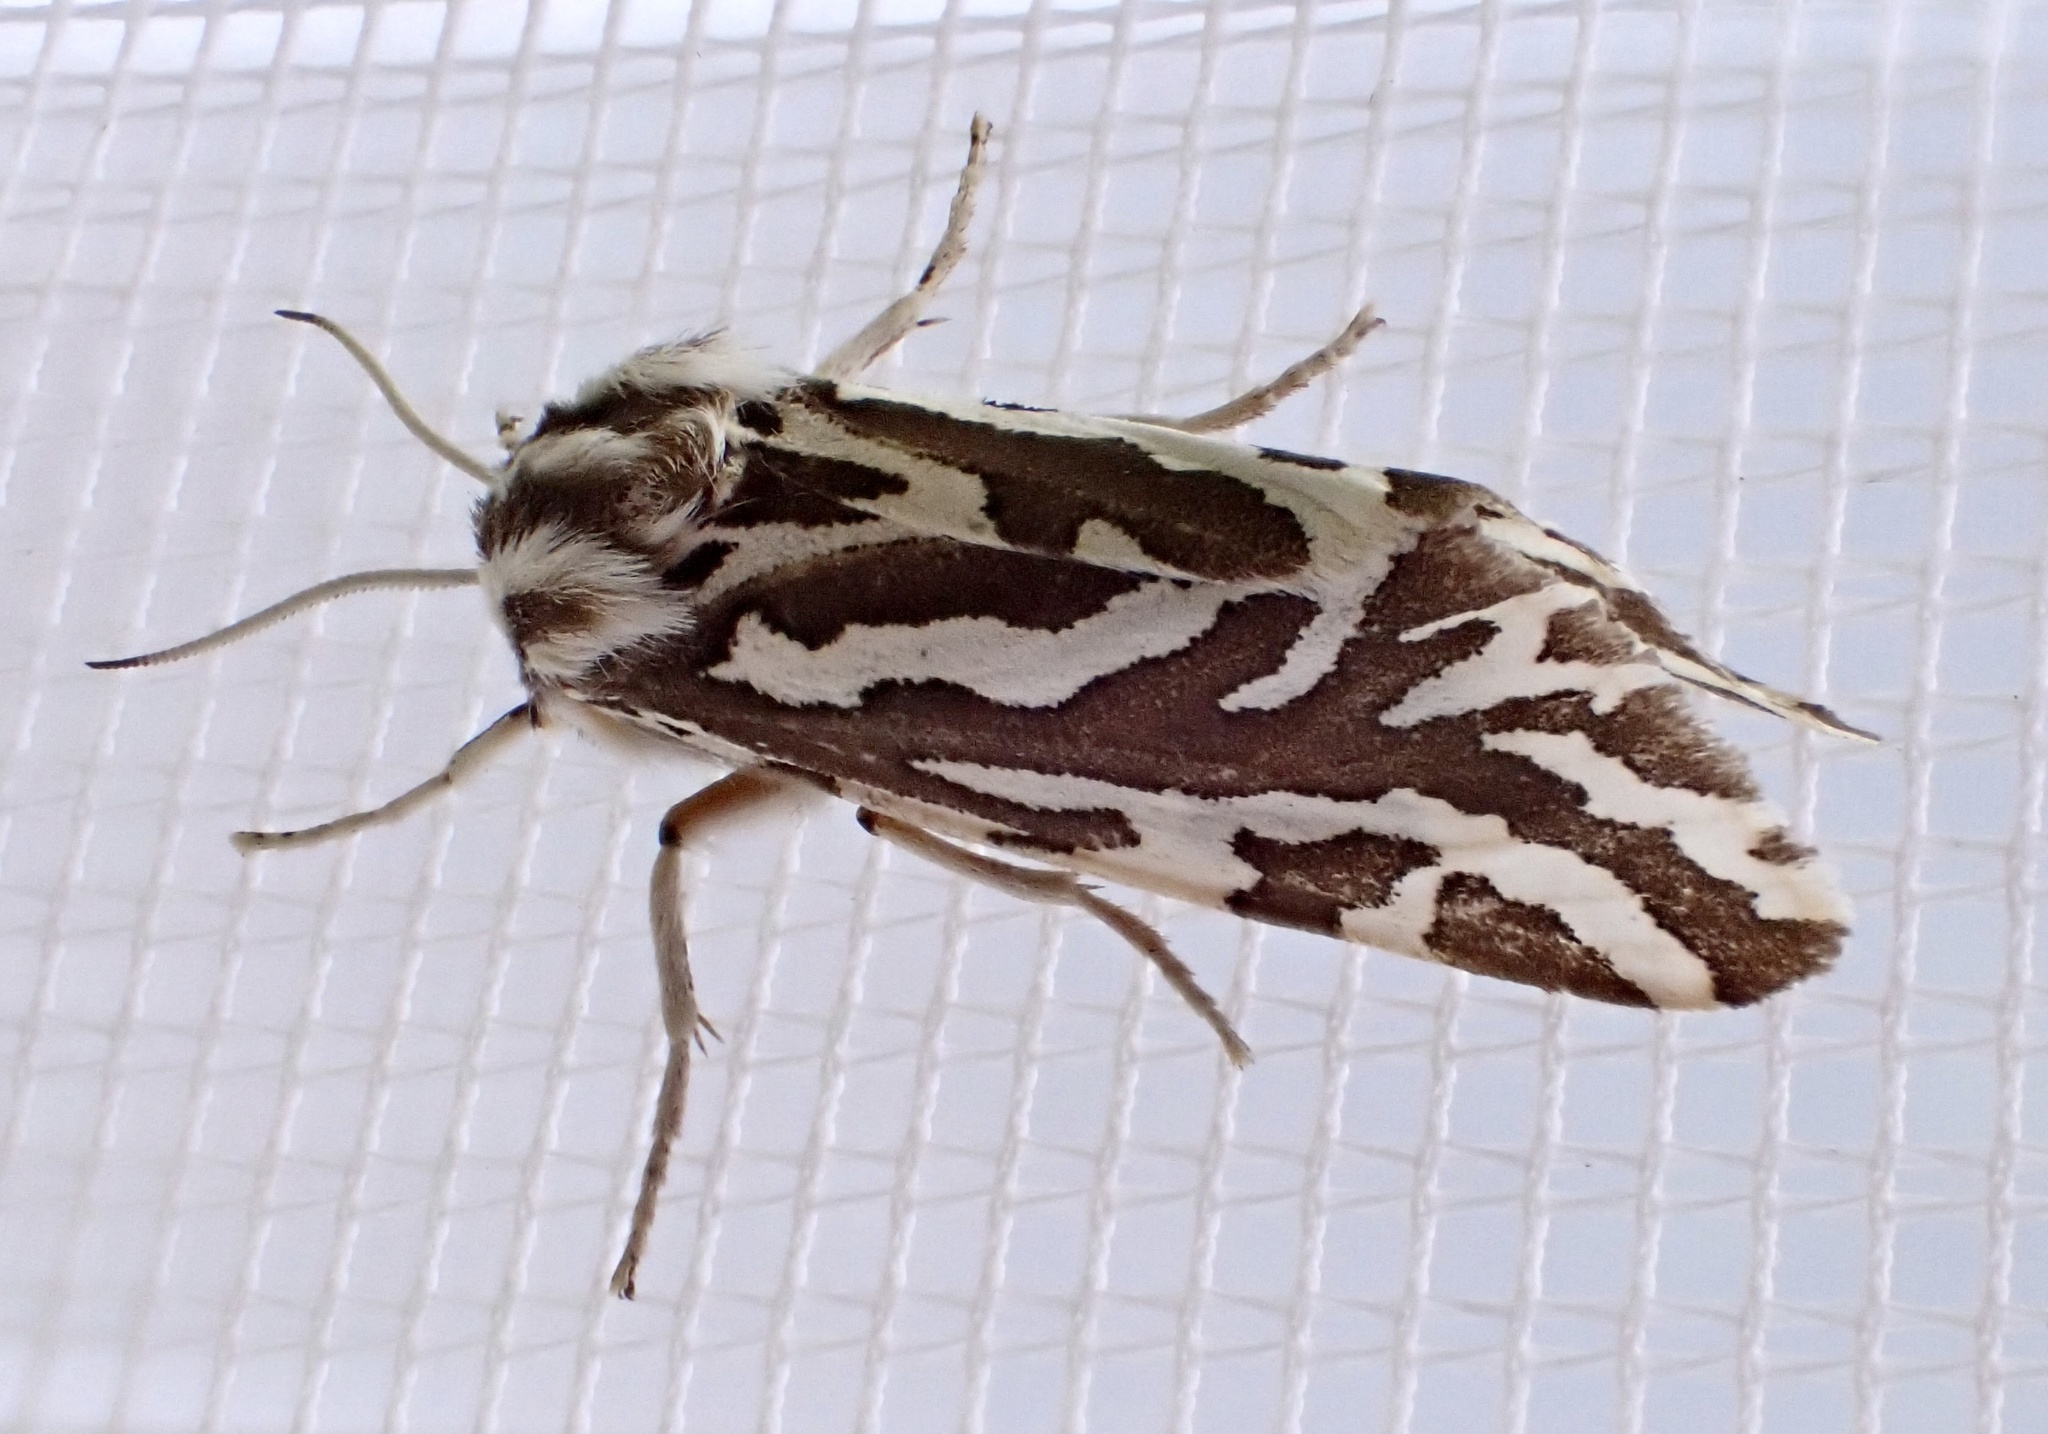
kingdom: Animalia
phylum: Arthropoda
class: Insecta
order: Lepidoptera
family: Erebidae
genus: Paralacydes
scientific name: Paralacydes vocula
